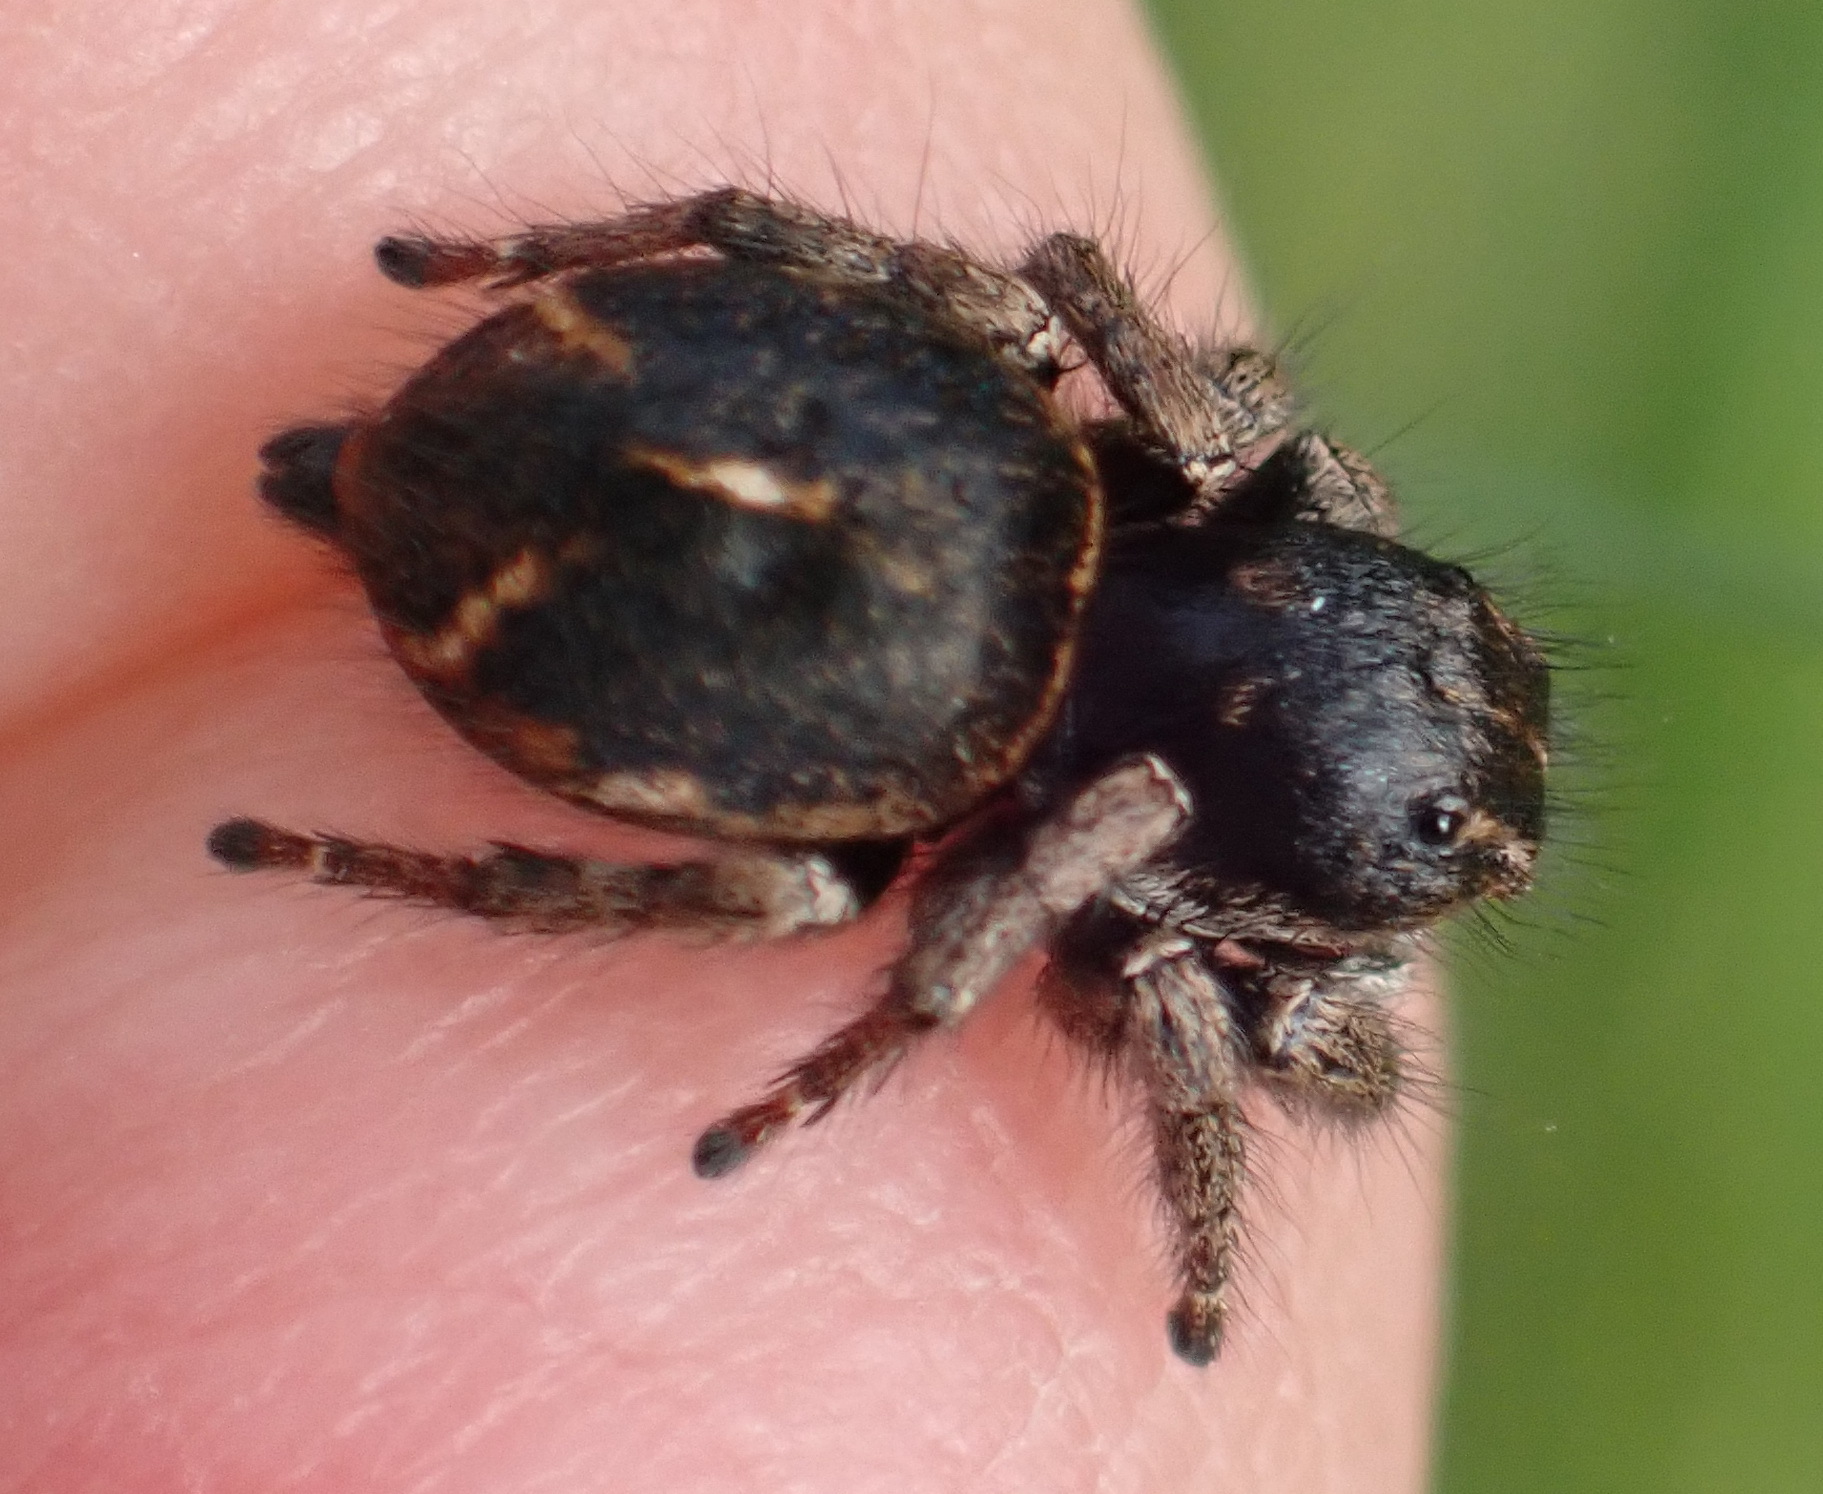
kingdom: Animalia
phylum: Arthropoda
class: Arachnida
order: Araneae
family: Salticidae
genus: Baryphas
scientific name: Baryphas ahenus
